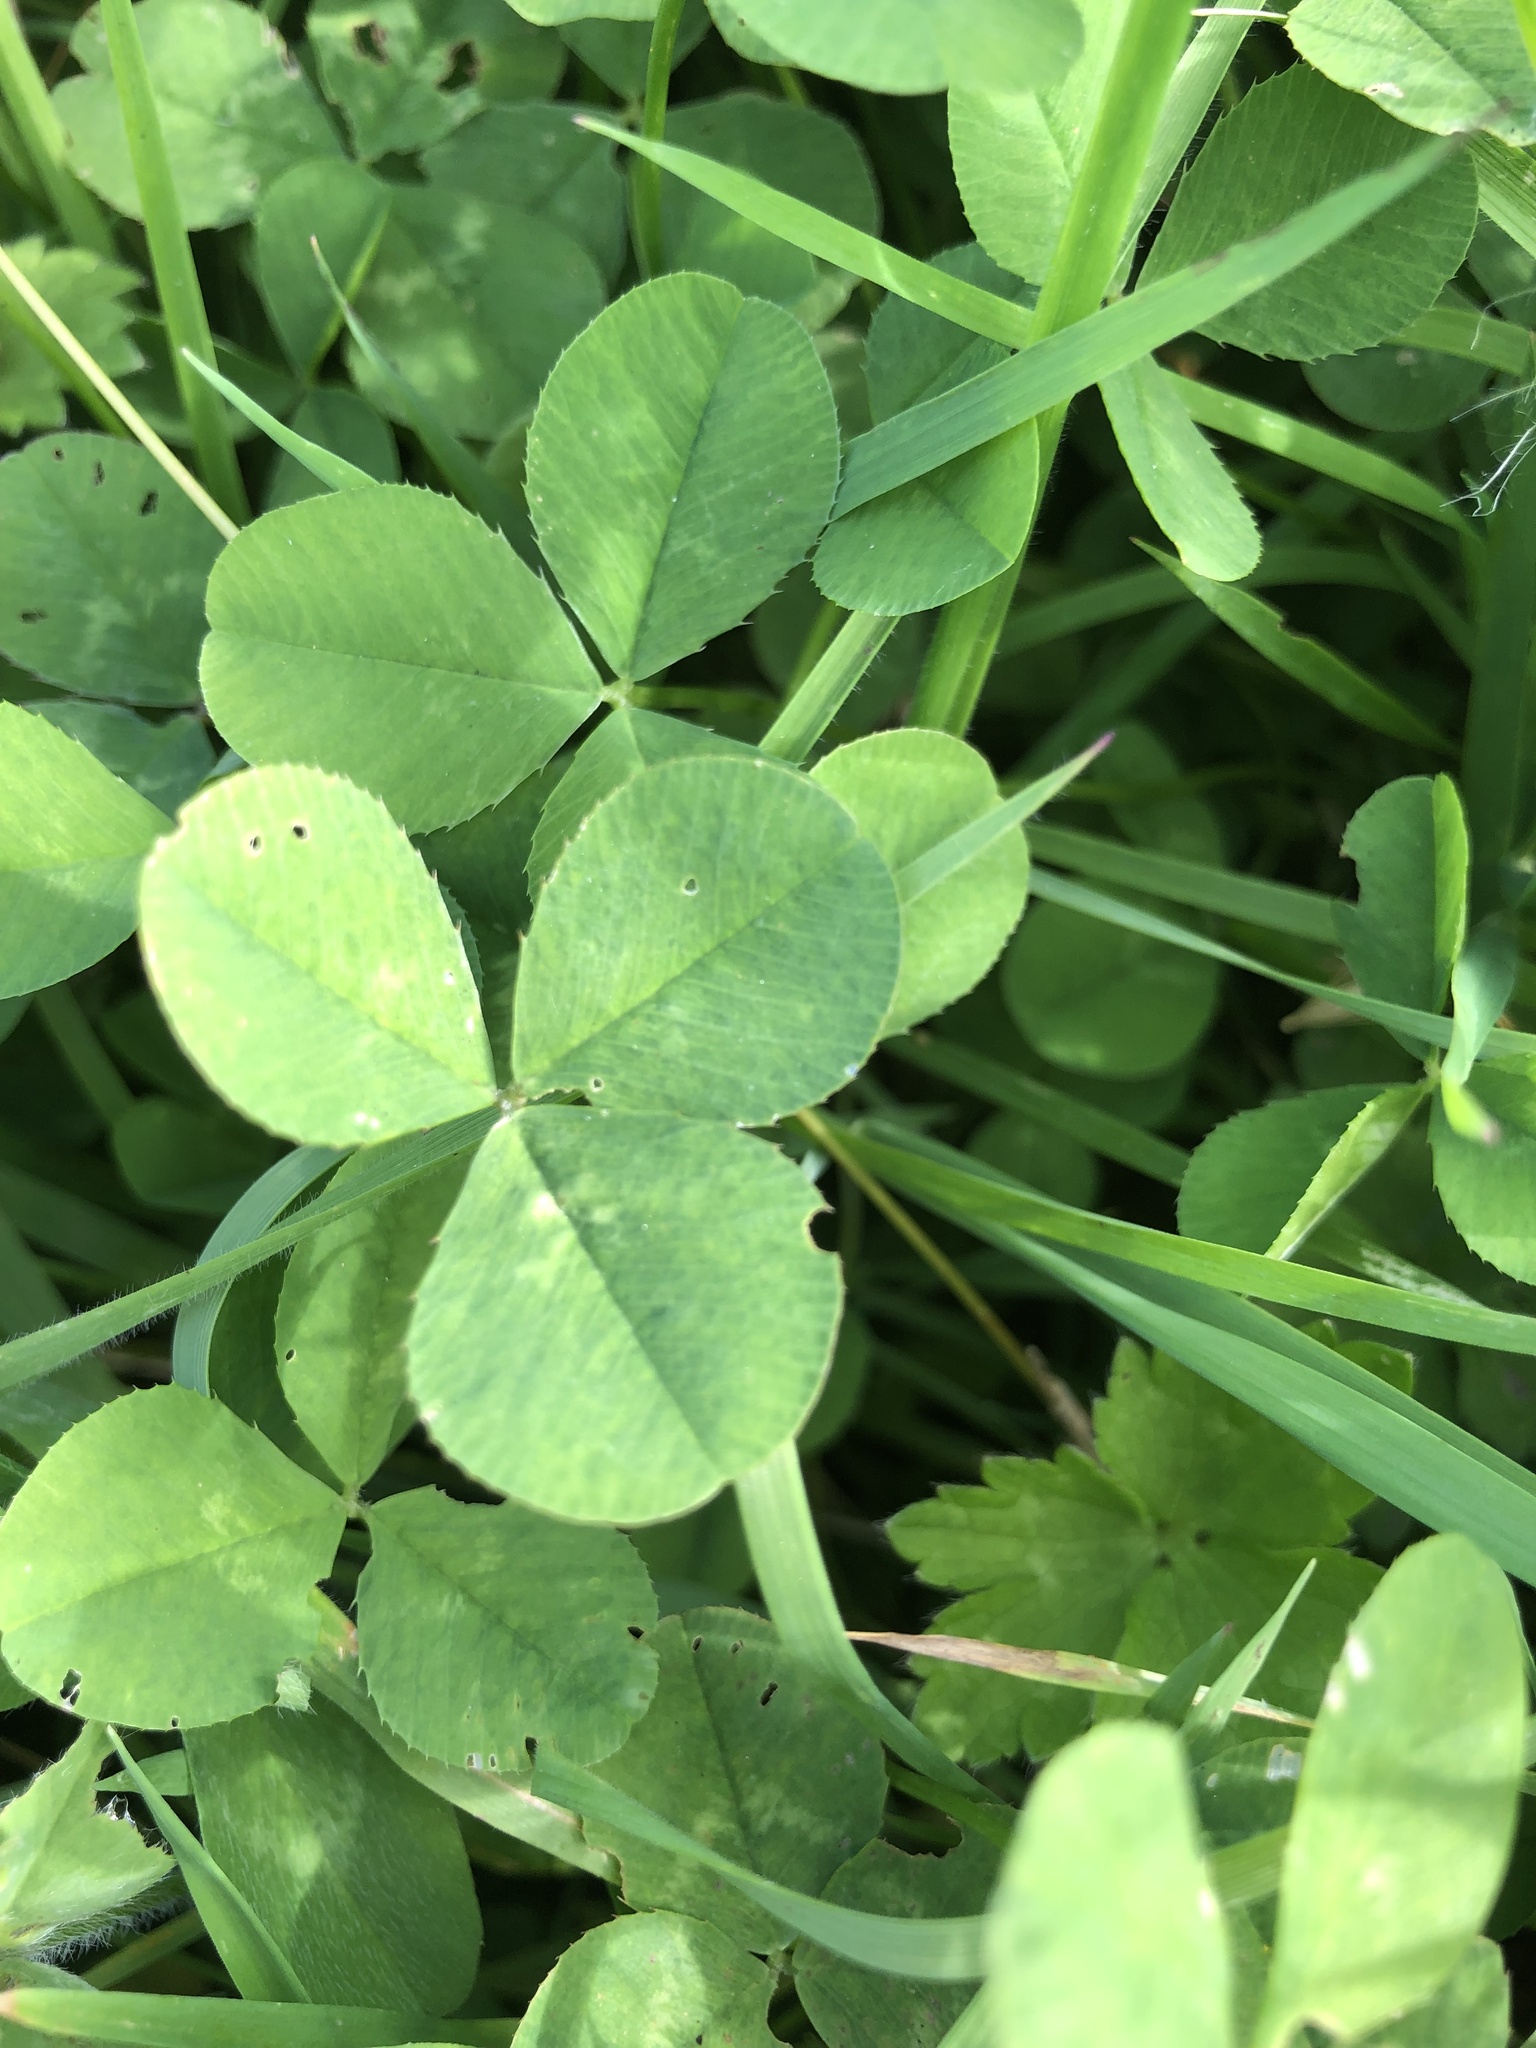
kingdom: Plantae
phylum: Tracheophyta
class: Magnoliopsida
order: Fabales
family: Fabaceae
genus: Trifolium
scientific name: Trifolium pratense
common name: Red clover
